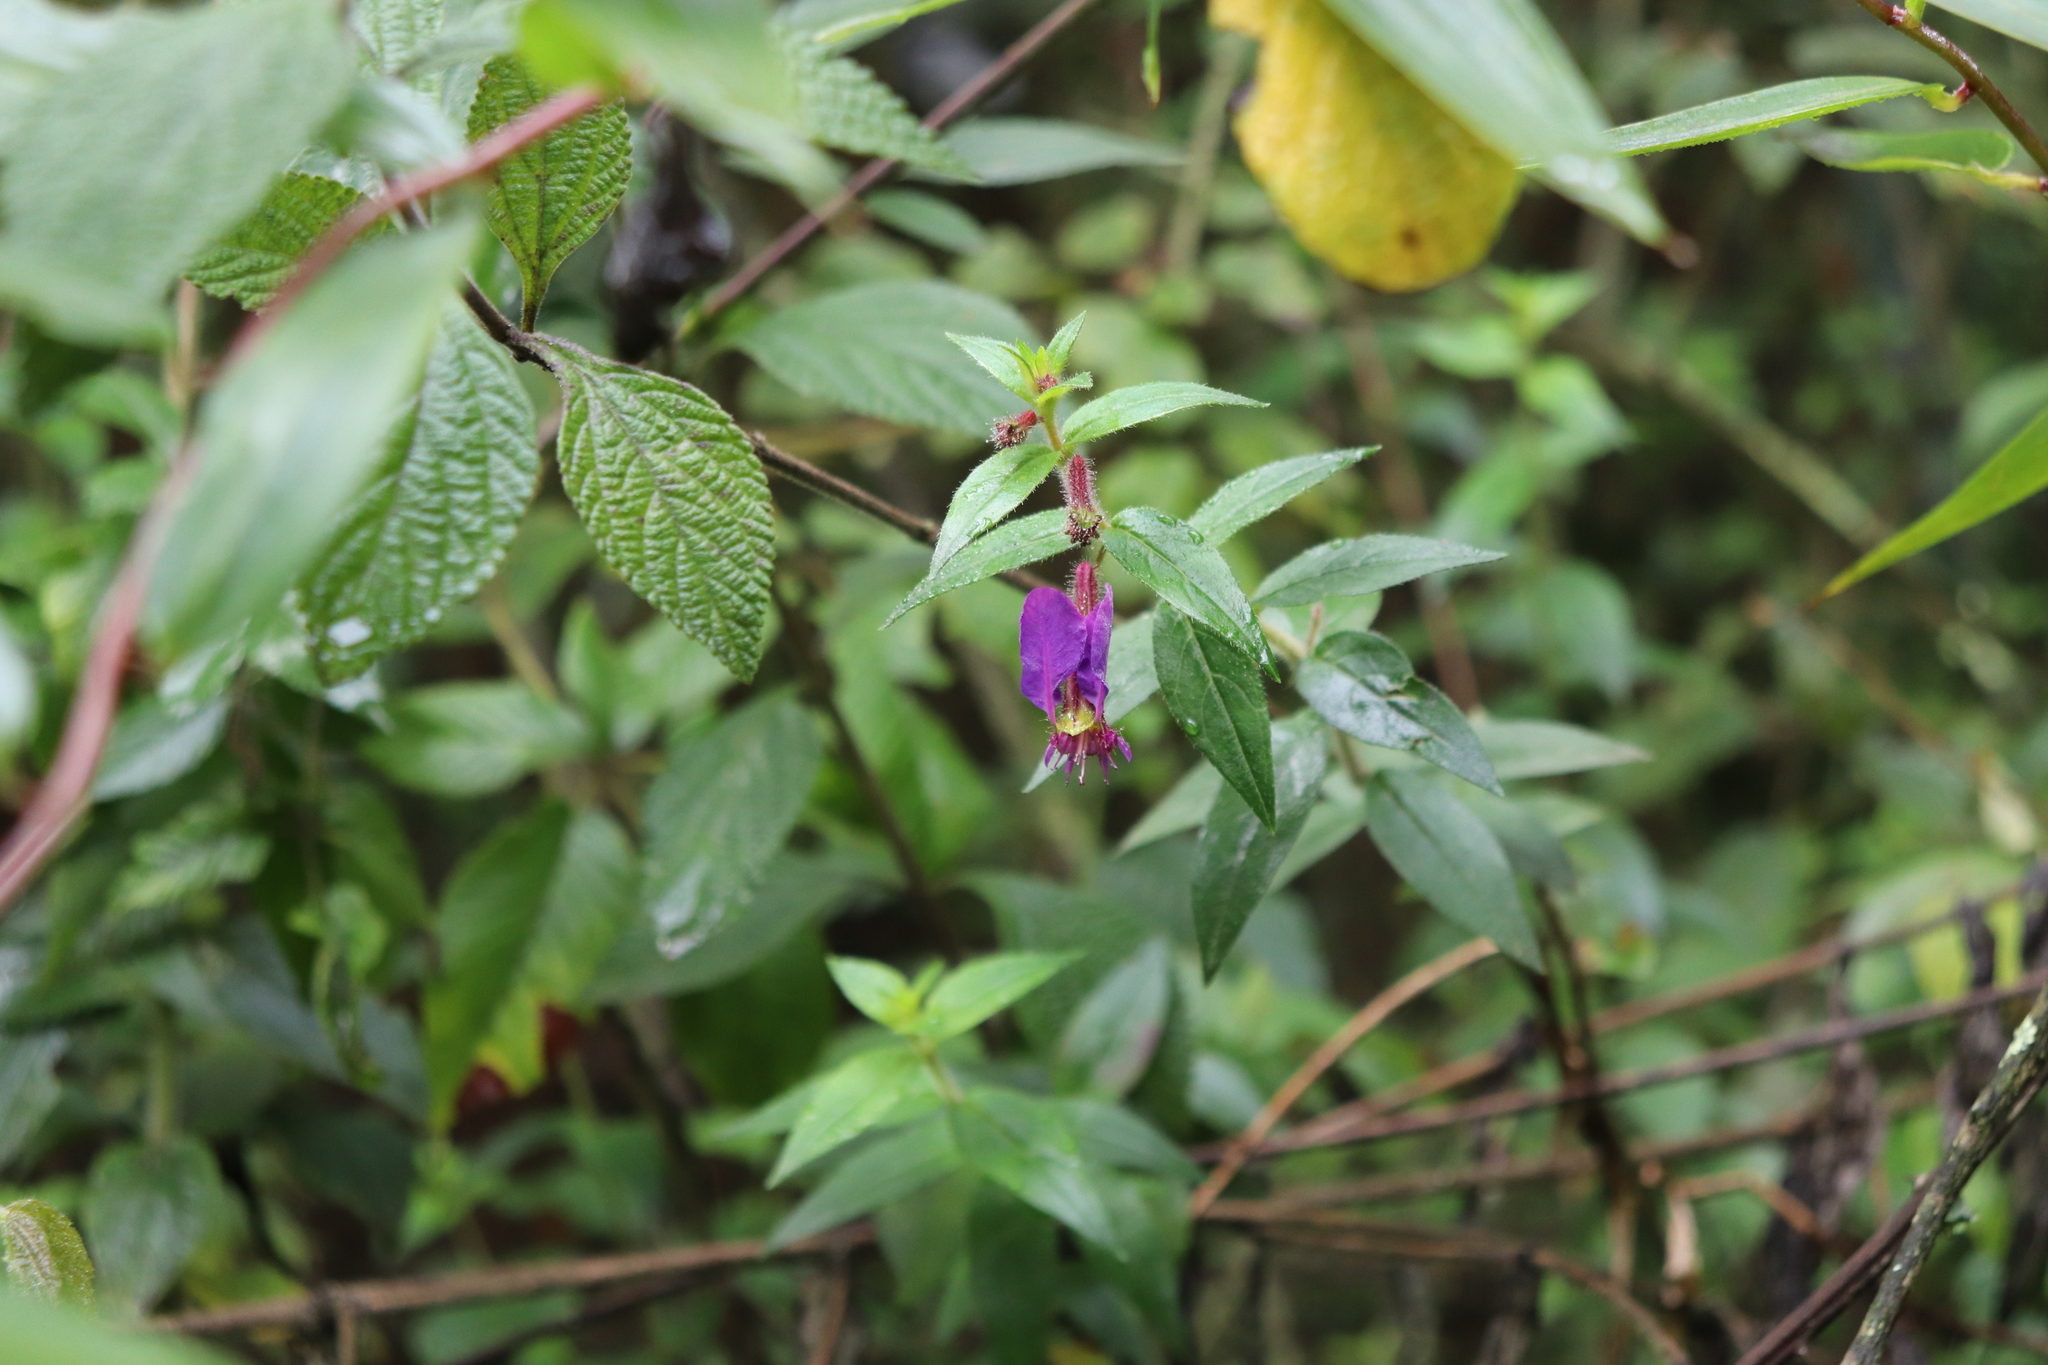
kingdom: Plantae
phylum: Tracheophyta
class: Magnoliopsida
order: Myrtales
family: Lythraceae
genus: Cuphea
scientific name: Cuphea dipetala
